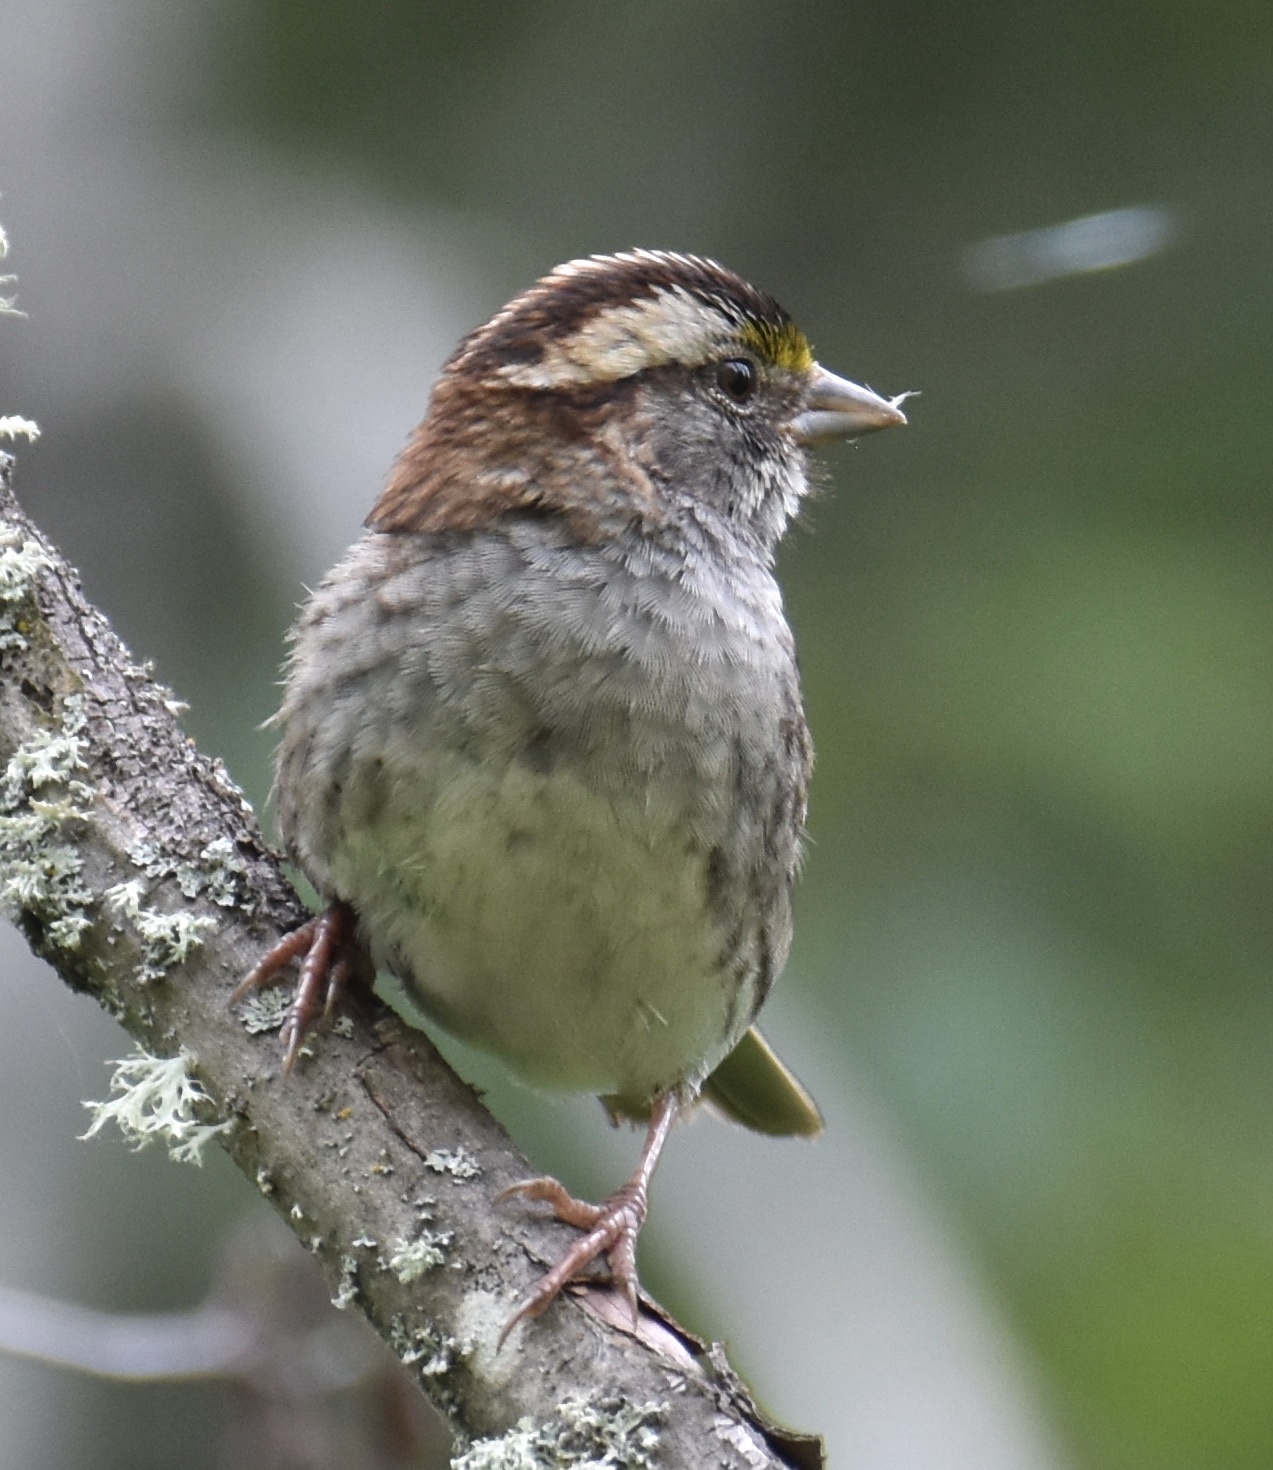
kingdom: Animalia
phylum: Chordata
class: Aves
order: Passeriformes
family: Passerellidae
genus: Zonotrichia
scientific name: Zonotrichia albicollis
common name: White-throated sparrow
